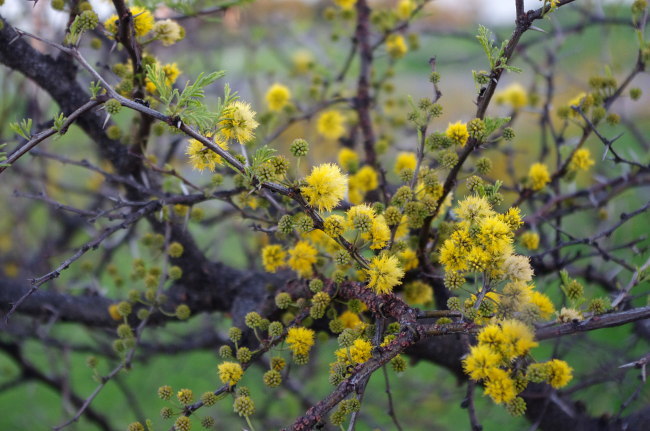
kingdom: Plantae
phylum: Tracheophyta
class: Magnoliopsida
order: Fabales
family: Fabaceae
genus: Vachellia
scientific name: Vachellia caven
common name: Roman cassie
